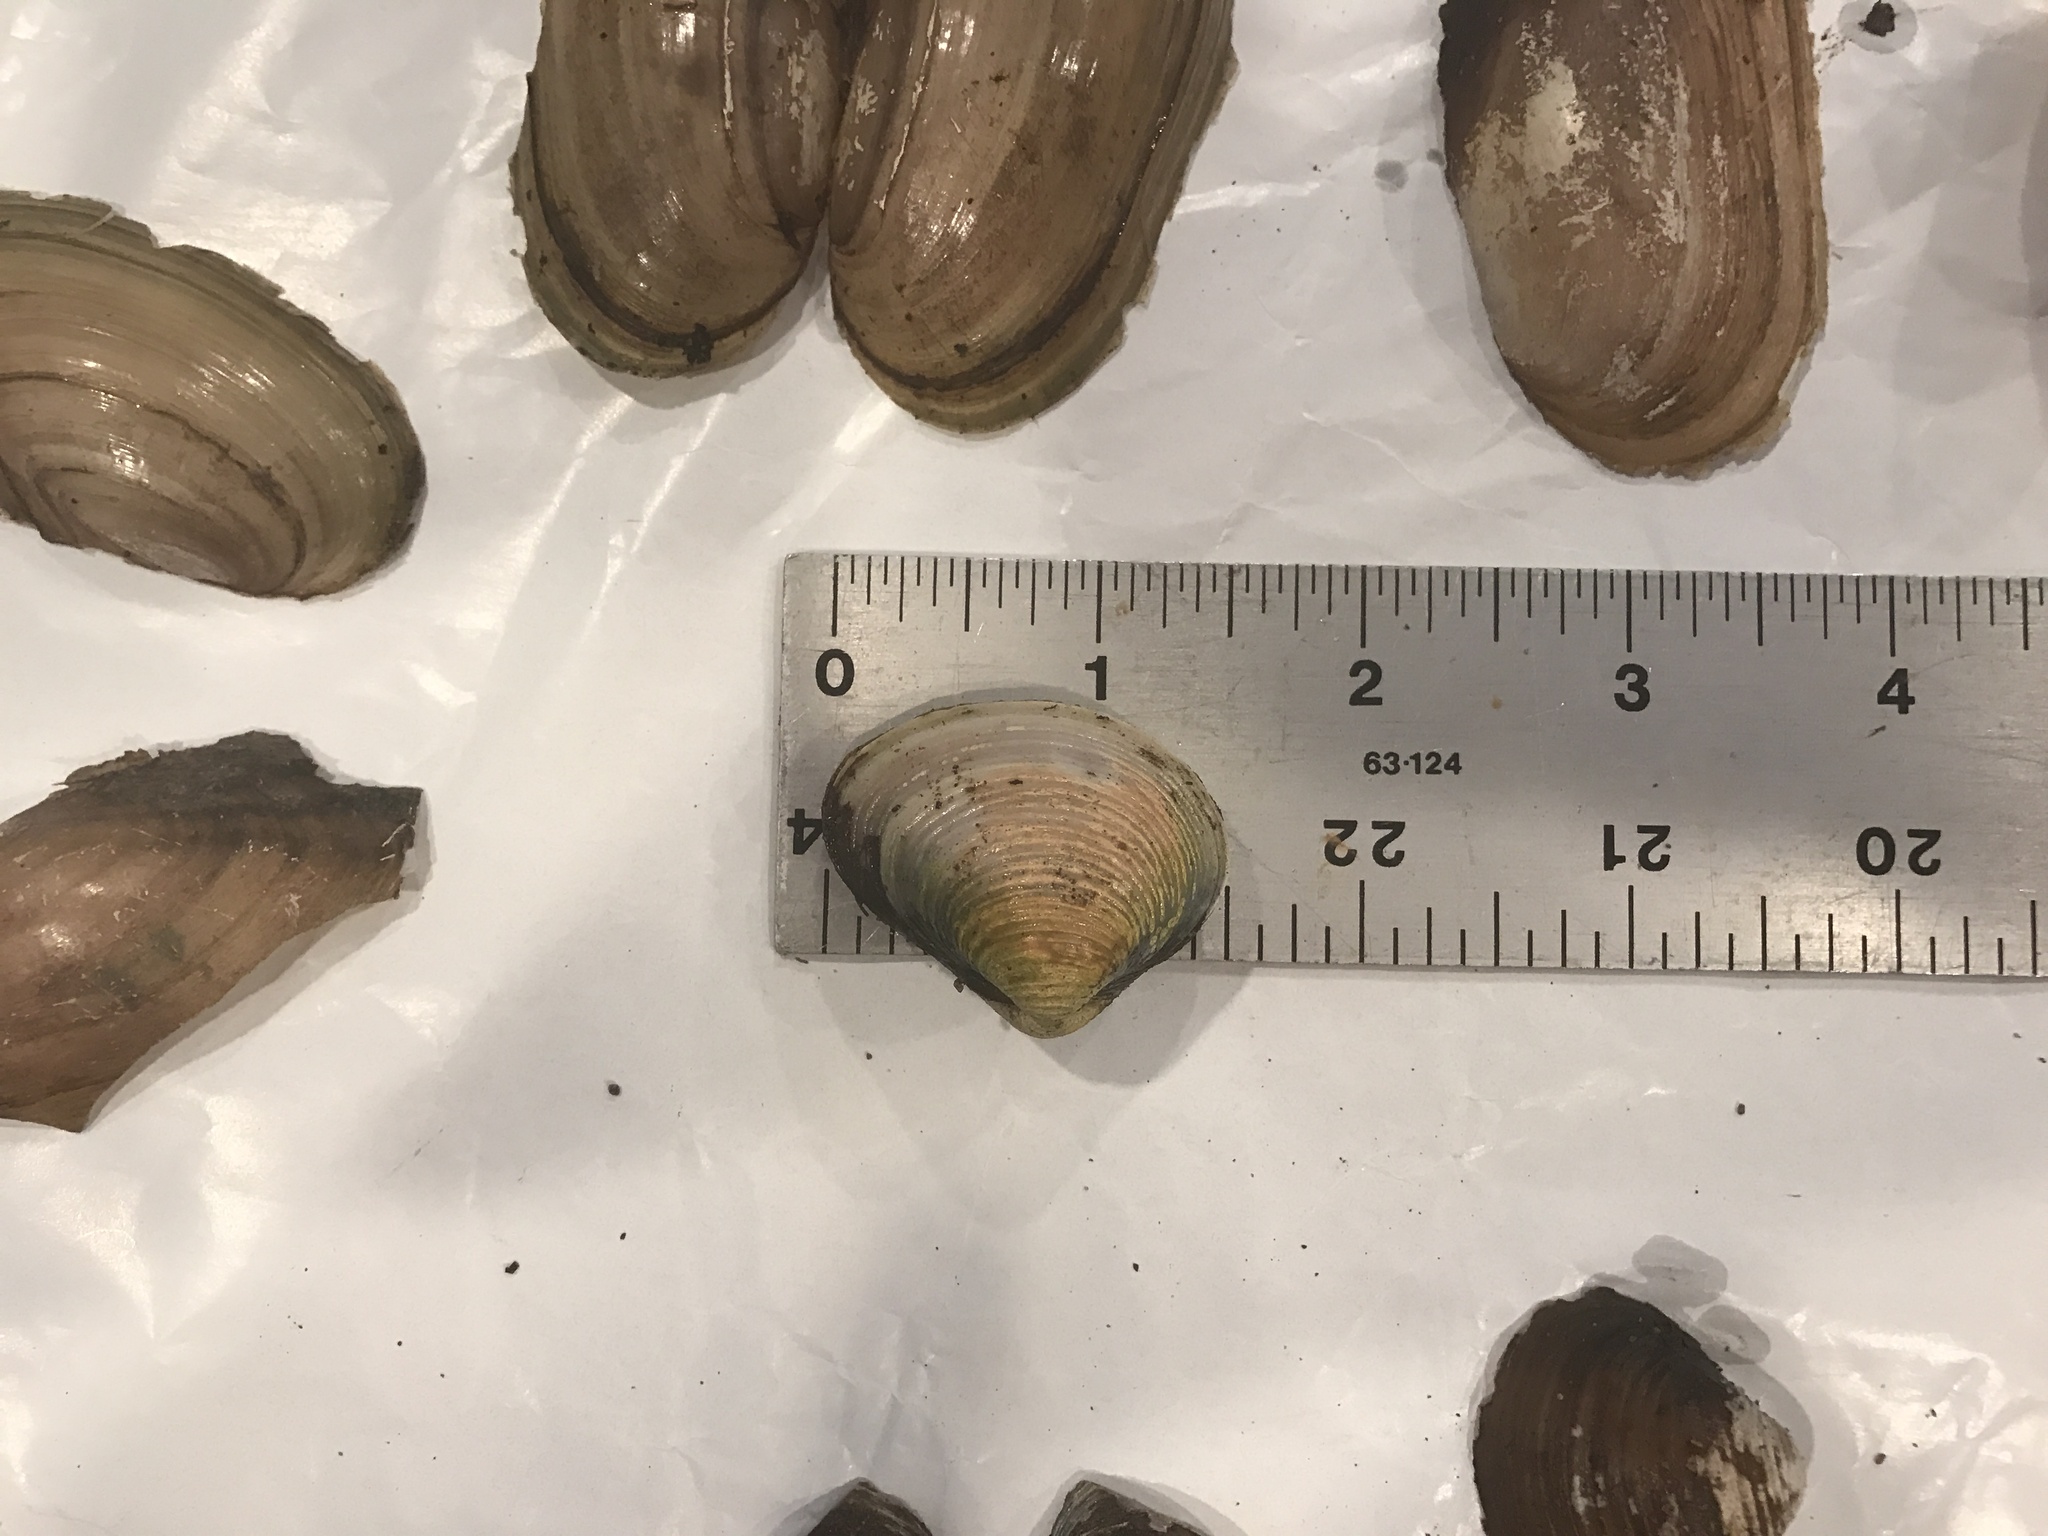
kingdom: Animalia
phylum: Mollusca
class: Bivalvia
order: Unionida
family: Unionidae
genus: Utterbackia
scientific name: Utterbackia imbecillis
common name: Paper pondshell
